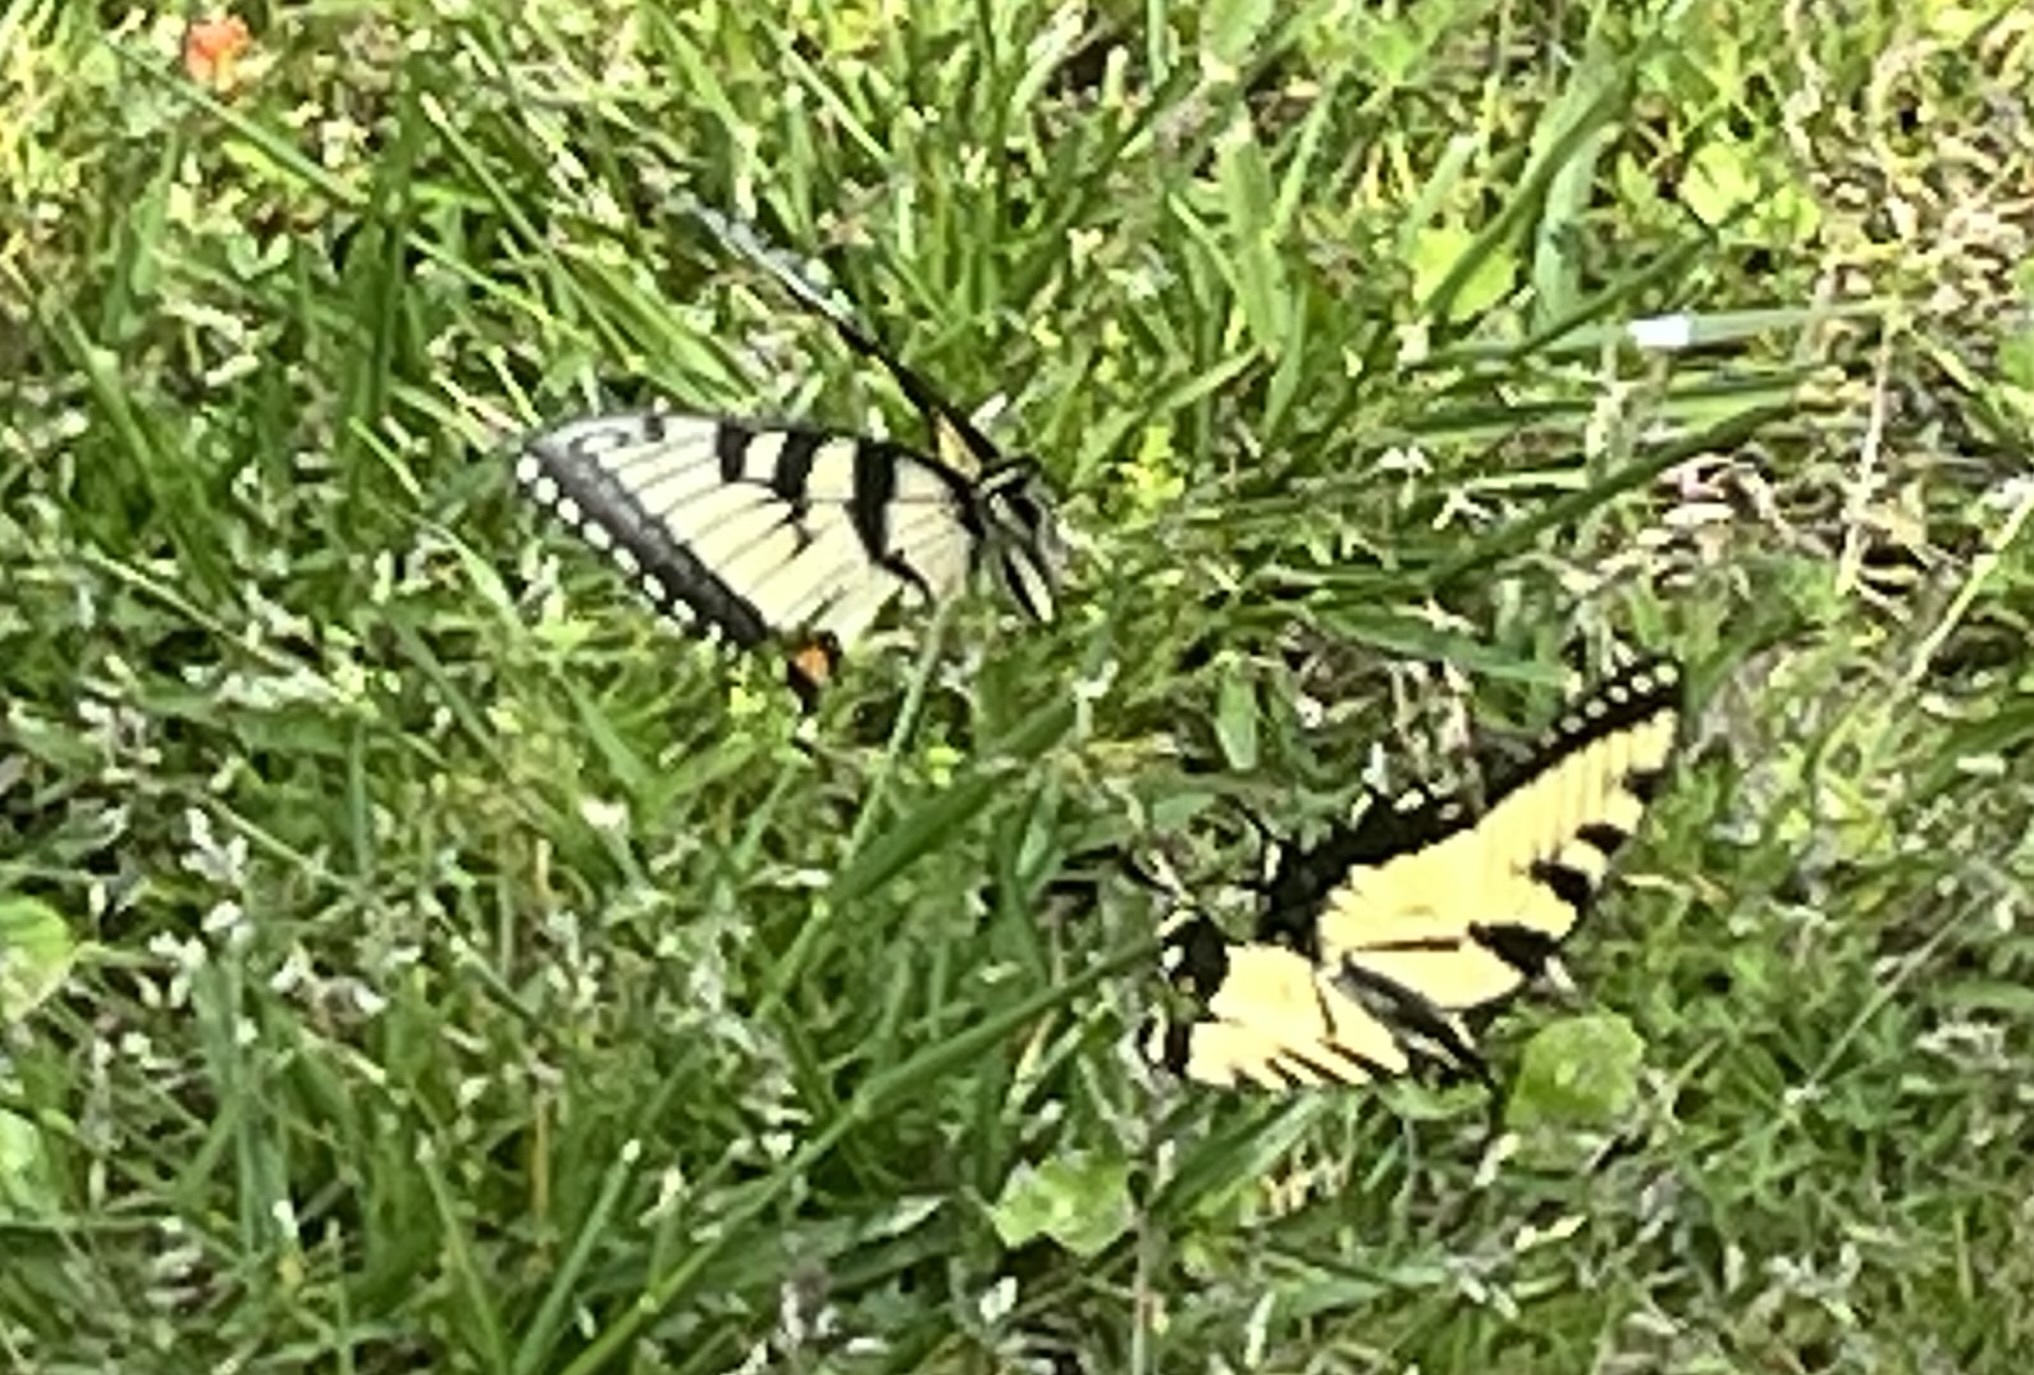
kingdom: Animalia
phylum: Arthropoda
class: Insecta
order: Lepidoptera
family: Papilionidae
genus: Papilio
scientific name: Papilio glaucus
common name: Tiger swallowtail
